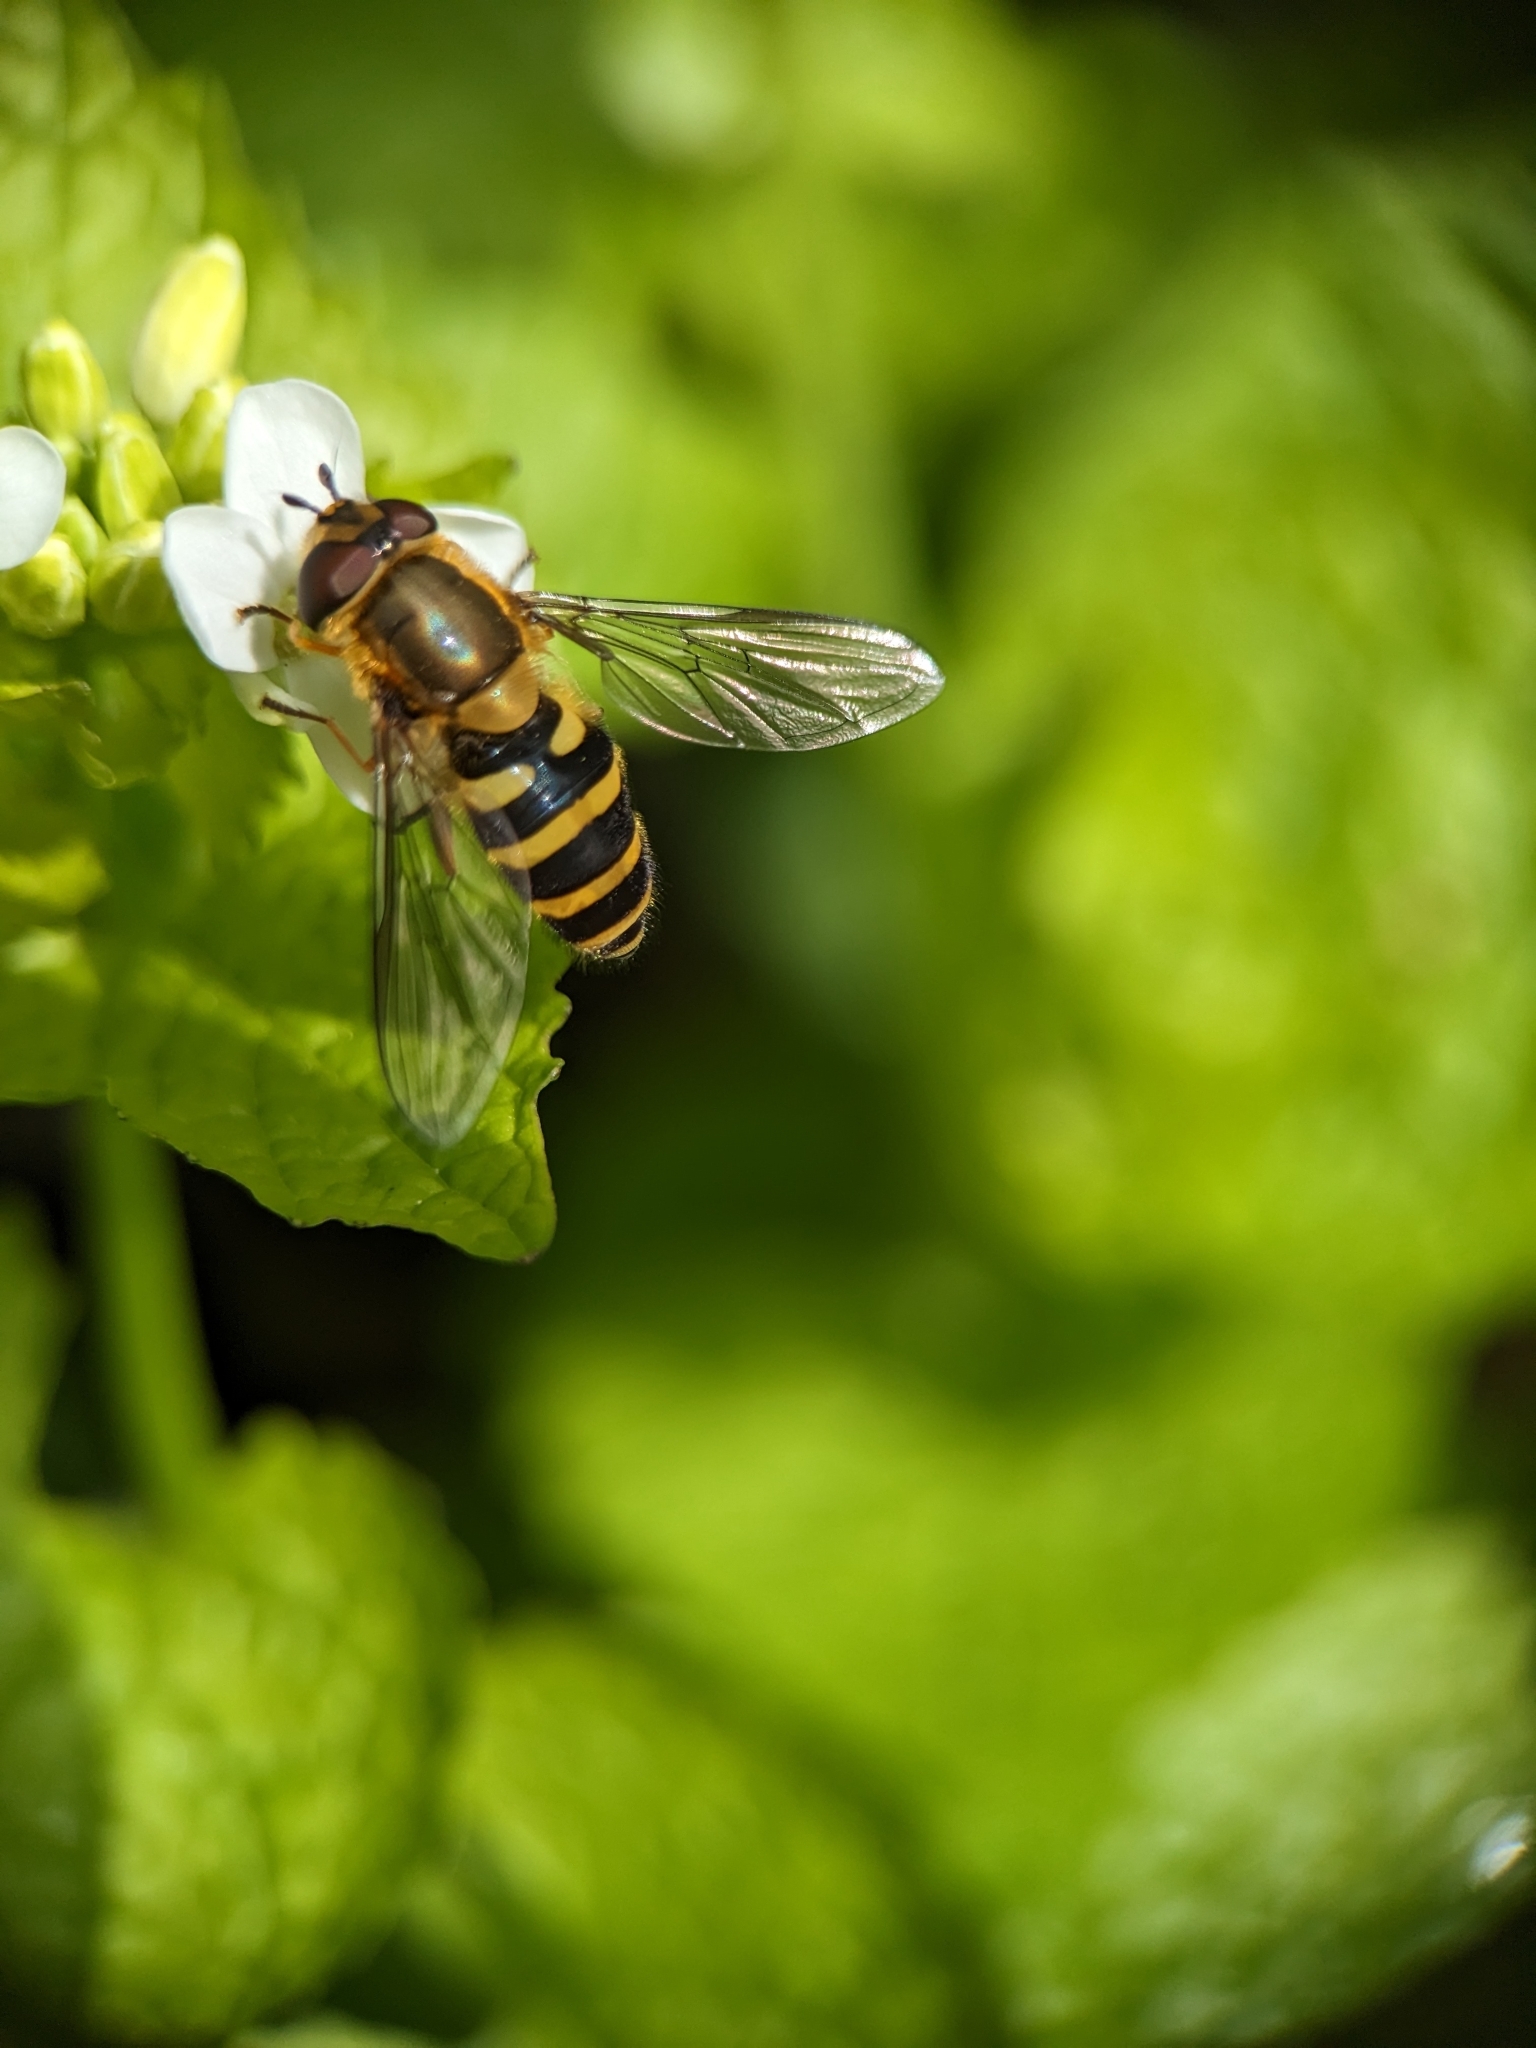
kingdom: Animalia
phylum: Arthropoda
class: Insecta
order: Diptera
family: Syrphidae
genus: Syrphus
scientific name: Syrphus
